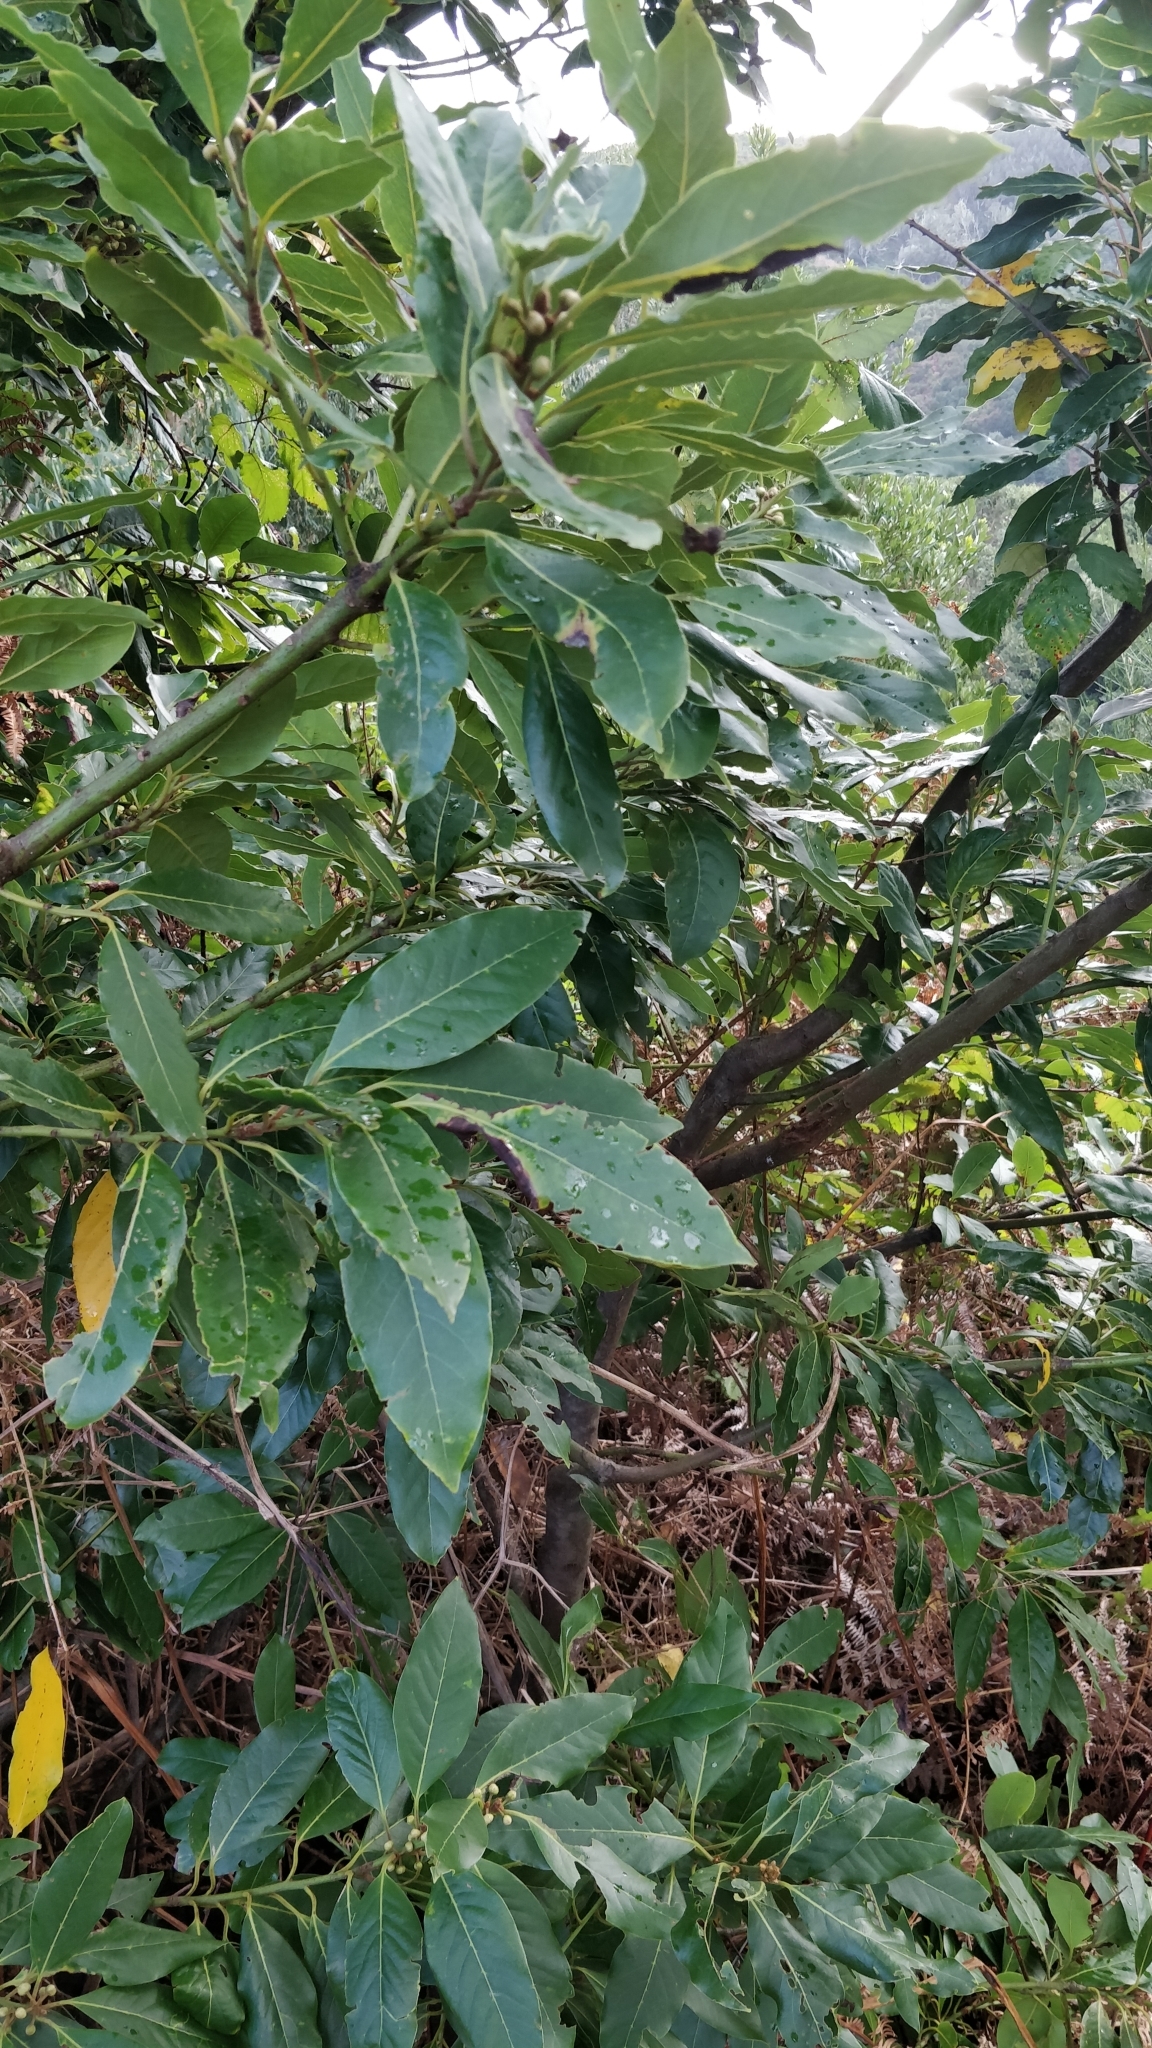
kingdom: Plantae
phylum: Tracheophyta
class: Magnoliopsida
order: Laurales
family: Lauraceae
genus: Laurus
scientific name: Laurus novocanariensis
